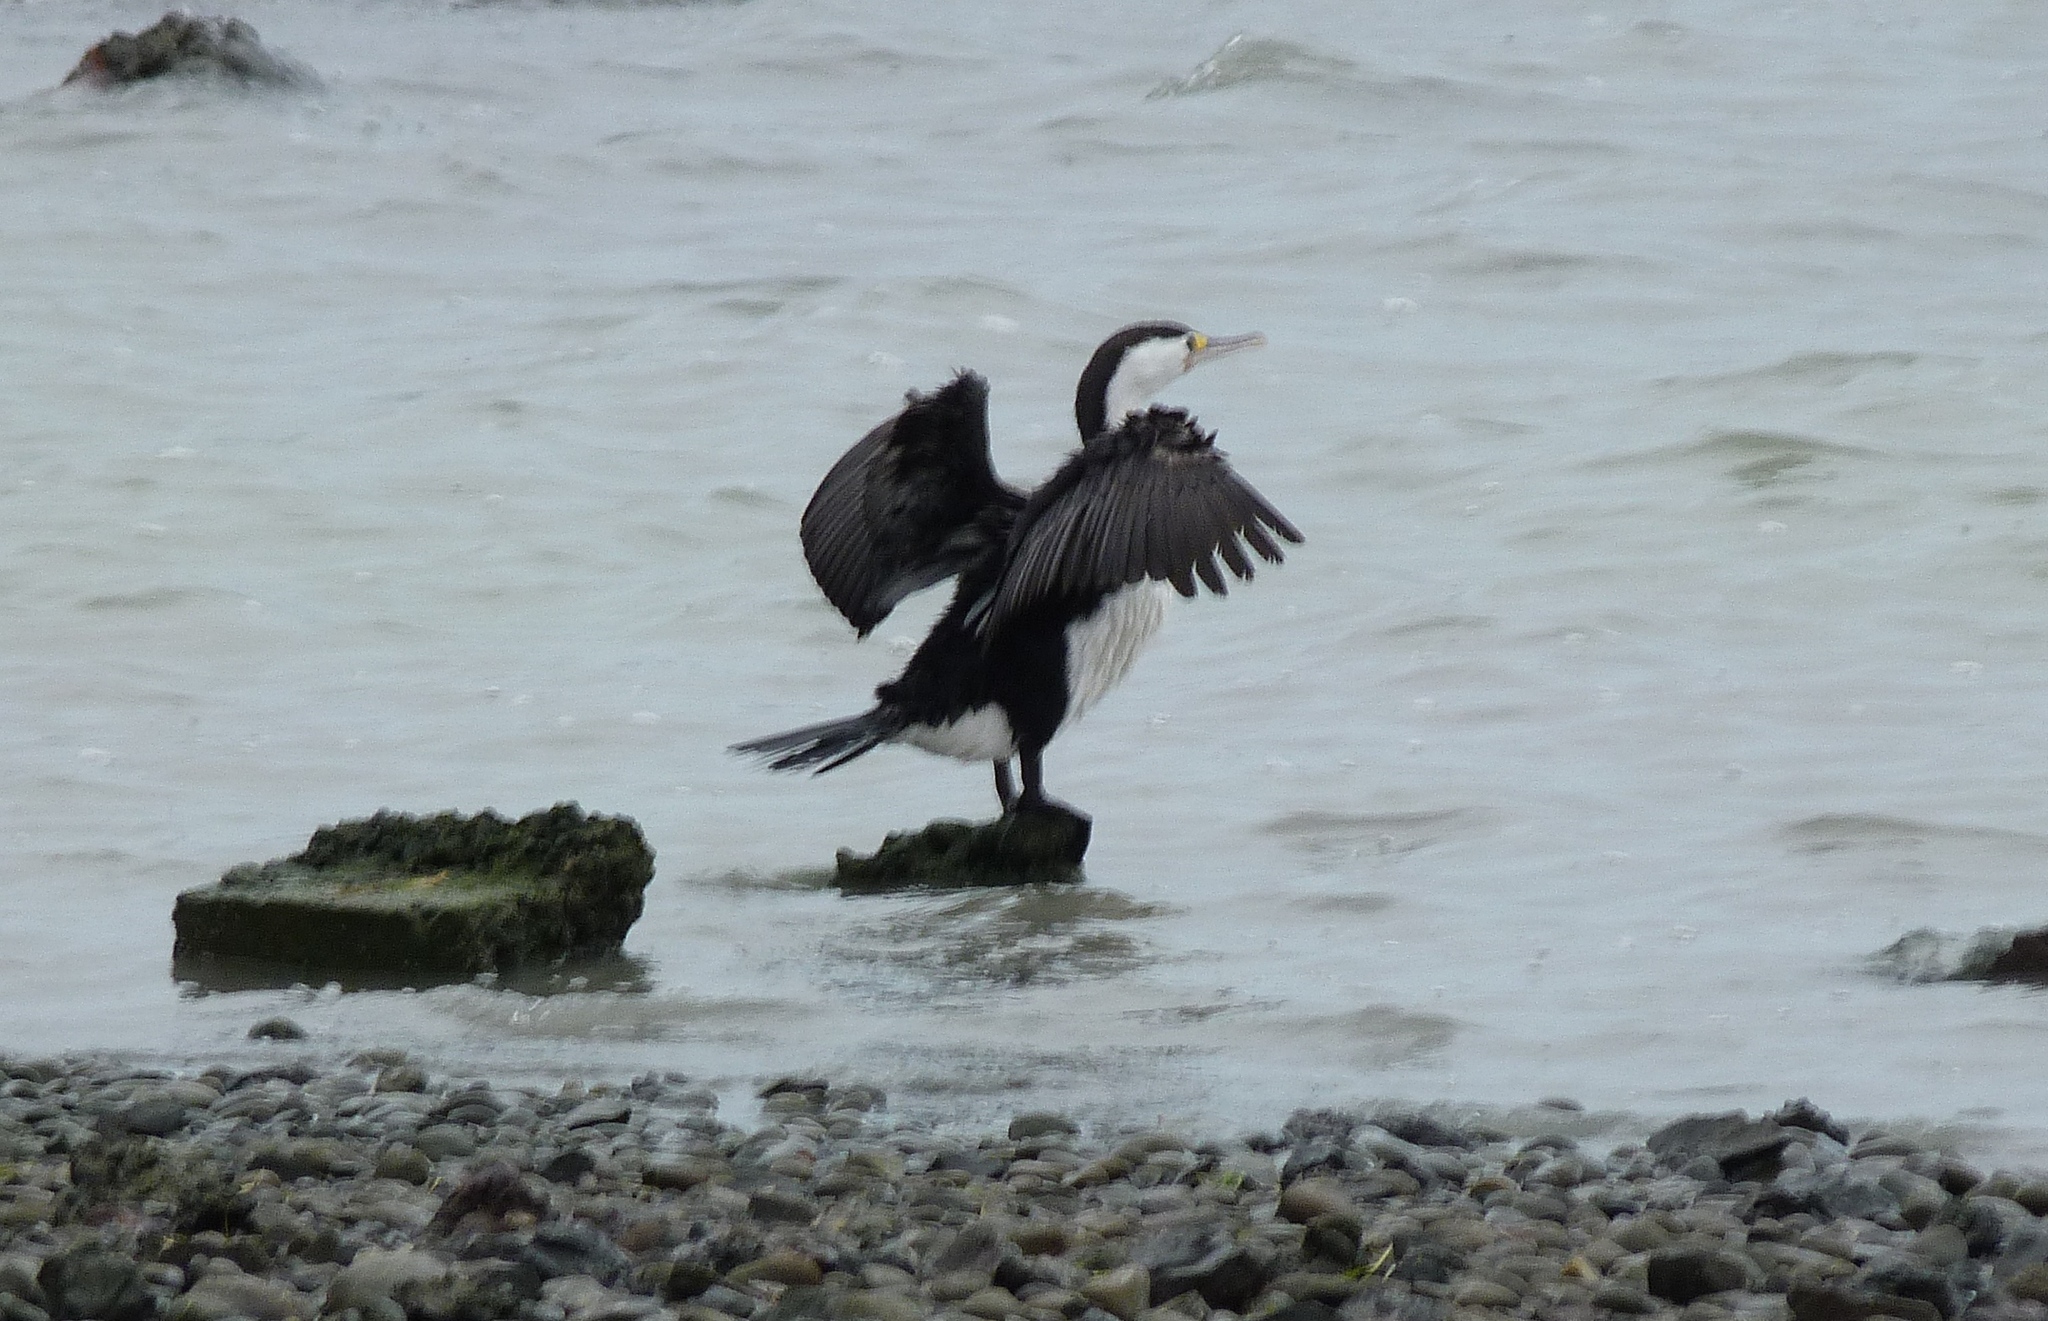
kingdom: Animalia
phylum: Chordata
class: Aves
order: Suliformes
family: Phalacrocoracidae
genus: Phalacrocorax
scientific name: Phalacrocorax varius
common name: Pied cormorant
